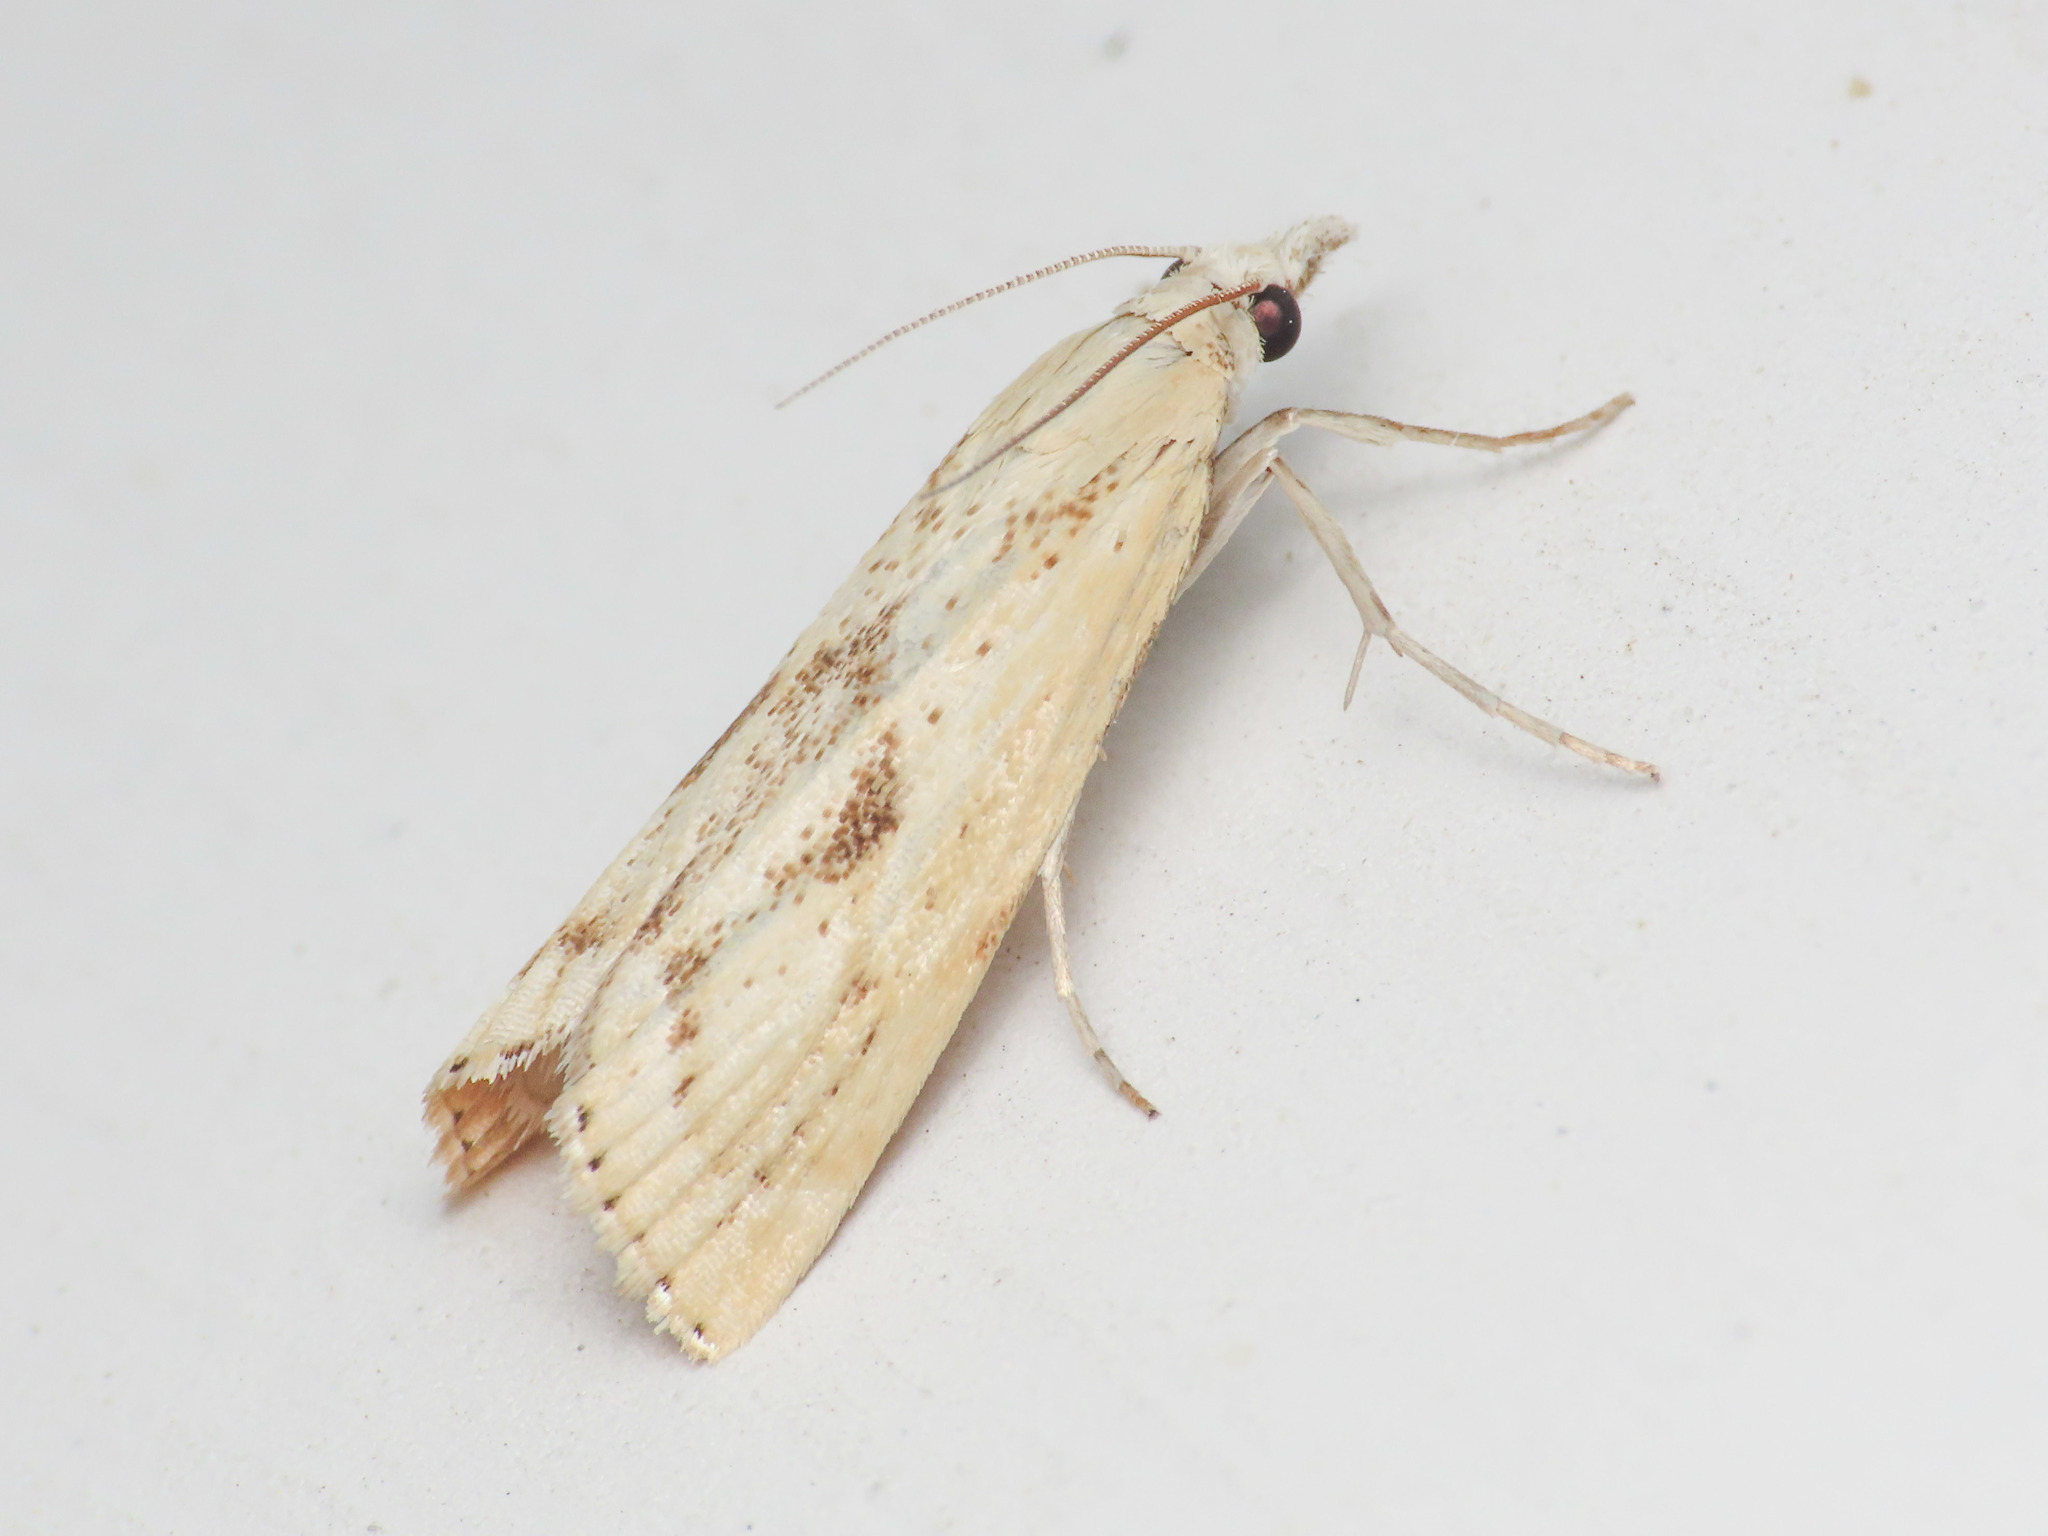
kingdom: Animalia
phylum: Arthropoda
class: Insecta
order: Lepidoptera
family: Crambidae
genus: Agriphila
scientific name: Agriphila brioniellus
